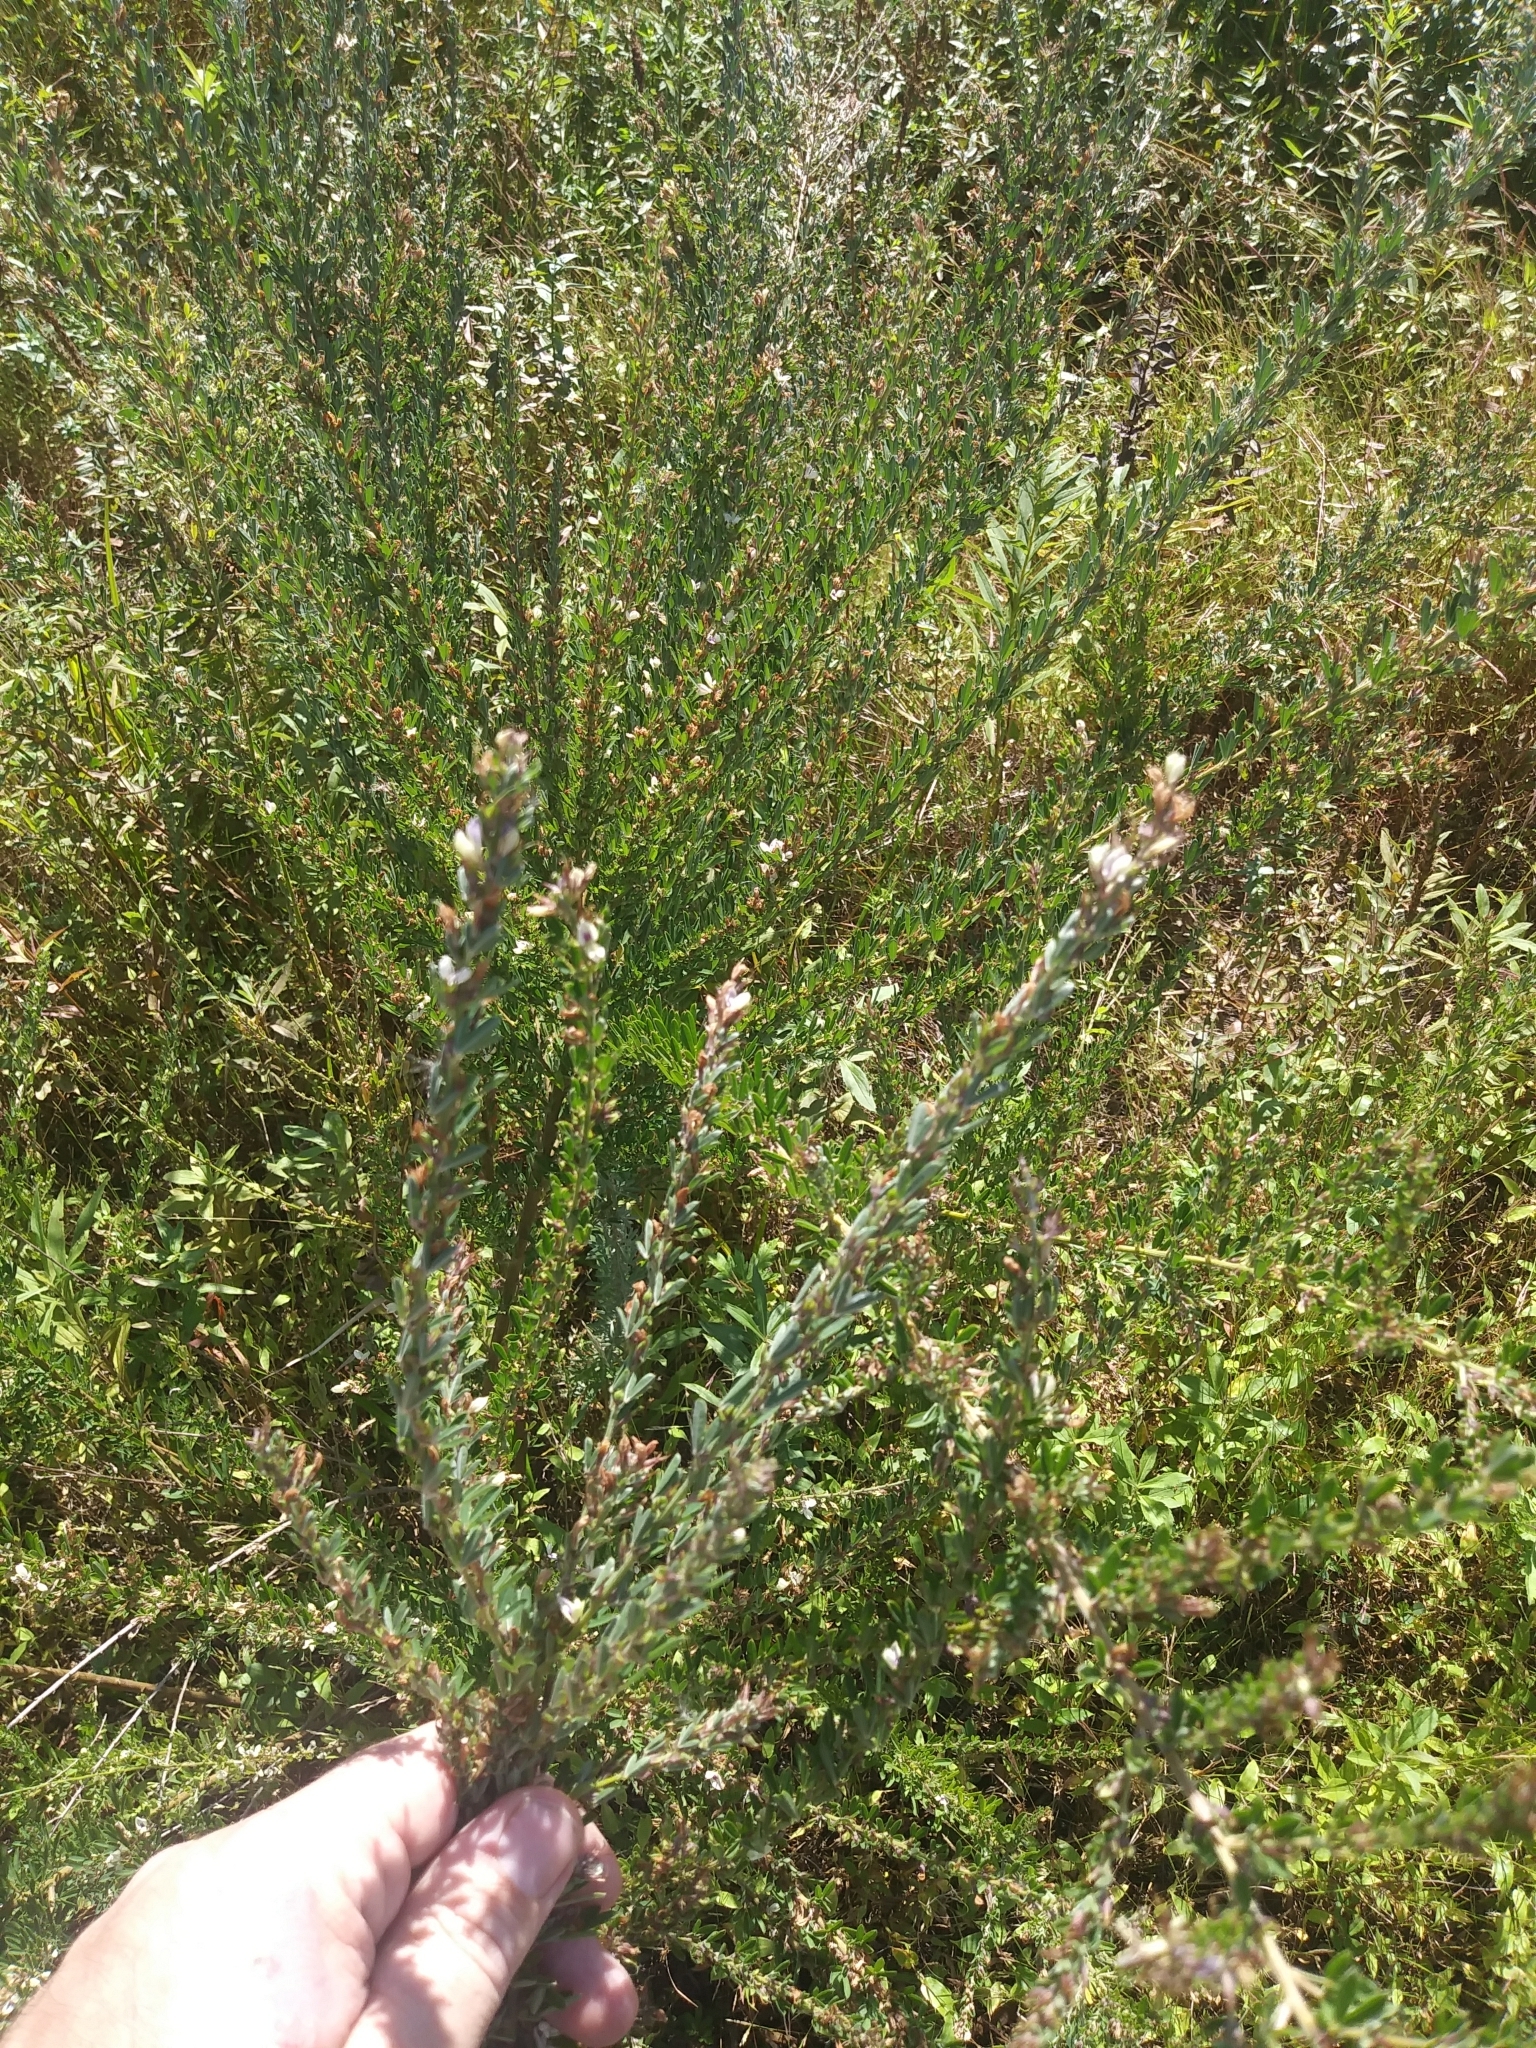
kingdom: Plantae
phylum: Tracheophyta
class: Magnoliopsida
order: Fabales
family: Fabaceae
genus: Lespedeza
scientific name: Lespedeza cuneata
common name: Chinese bush-clover
